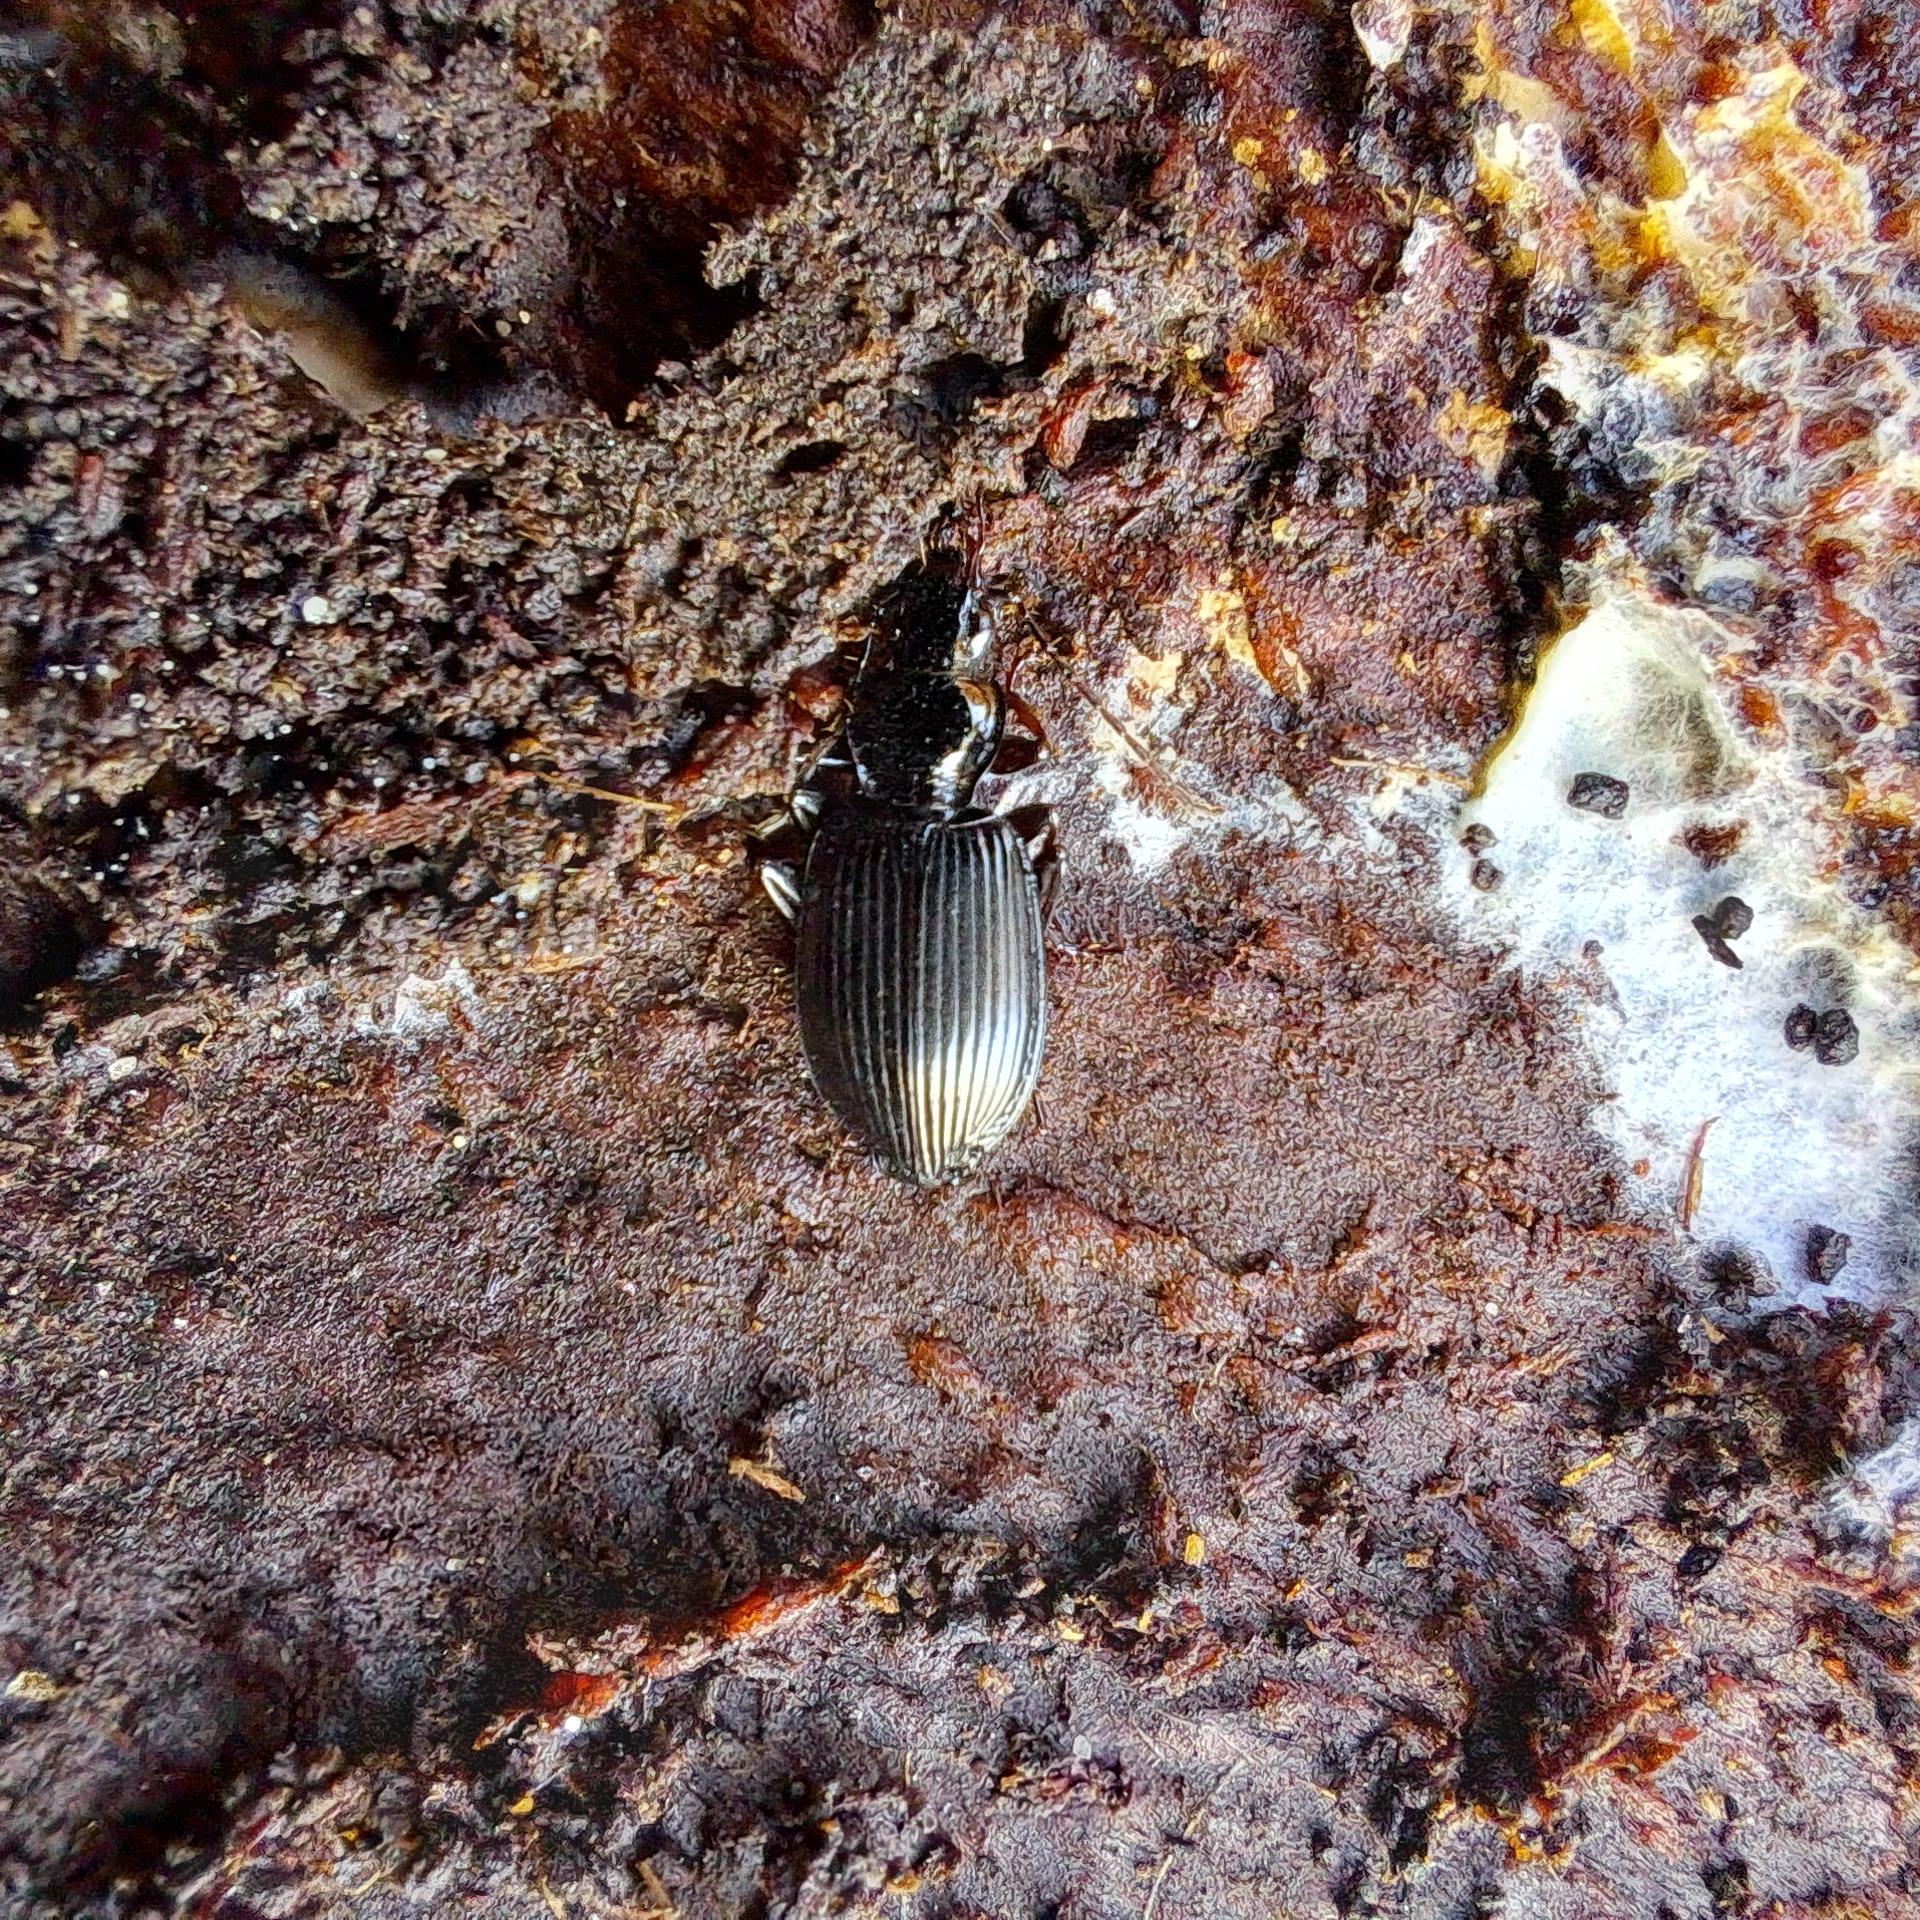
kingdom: Animalia
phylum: Arthropoda
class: Insecta
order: Coleoptera
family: Carabidae
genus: Platynus
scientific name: Platynus assimilis
